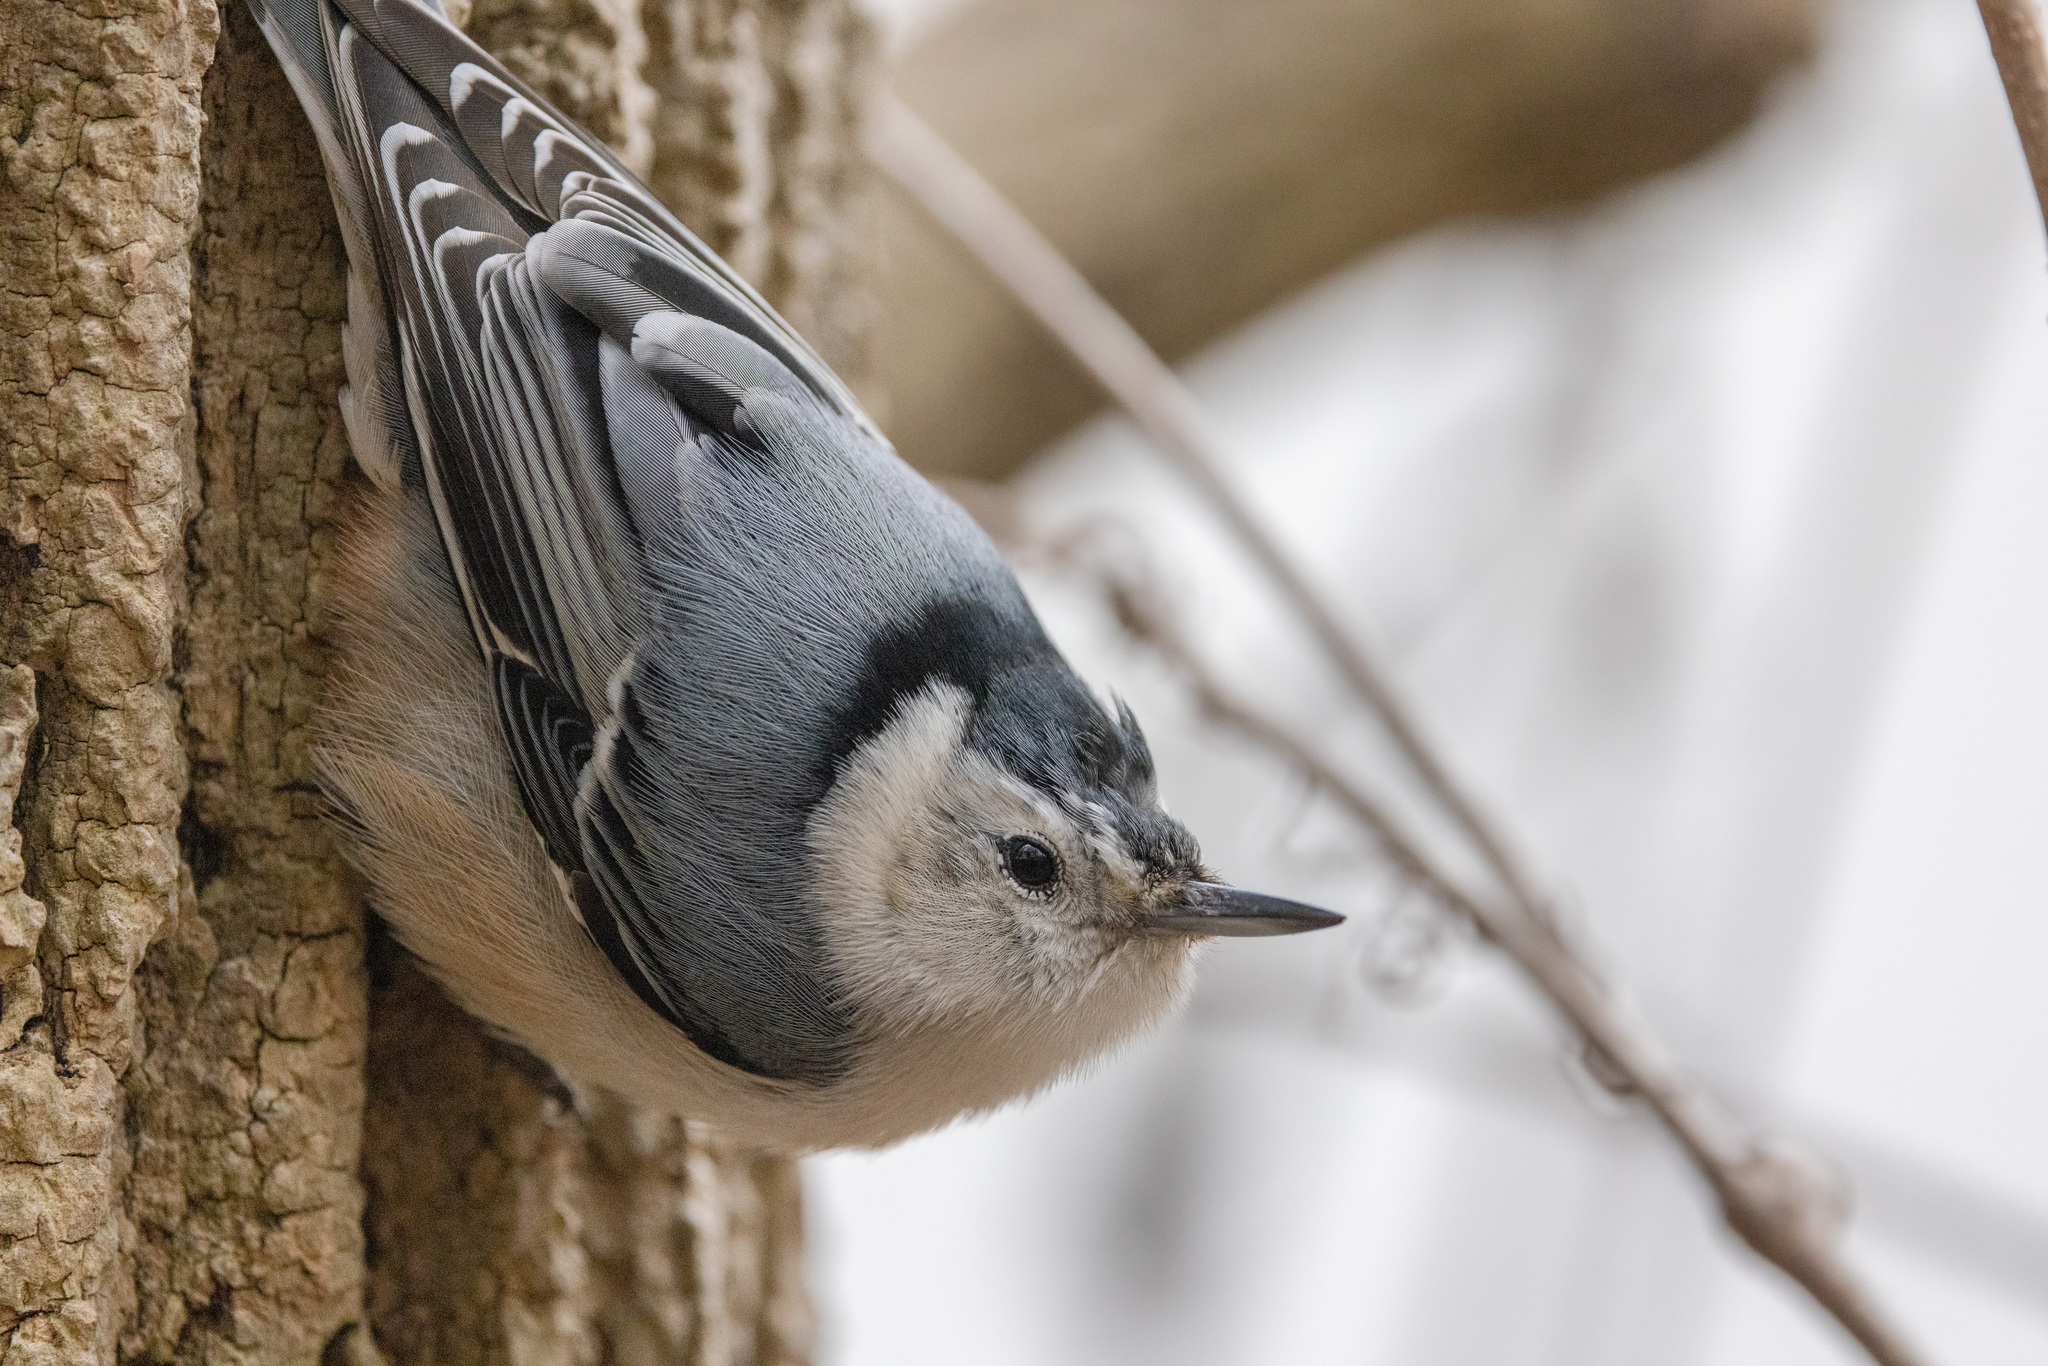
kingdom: Animalia
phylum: Chordata
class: Aves
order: Passeriformes
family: Sittidae
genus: Sitta
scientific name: Sitta carolinensis
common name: White-breasted nuthatch
